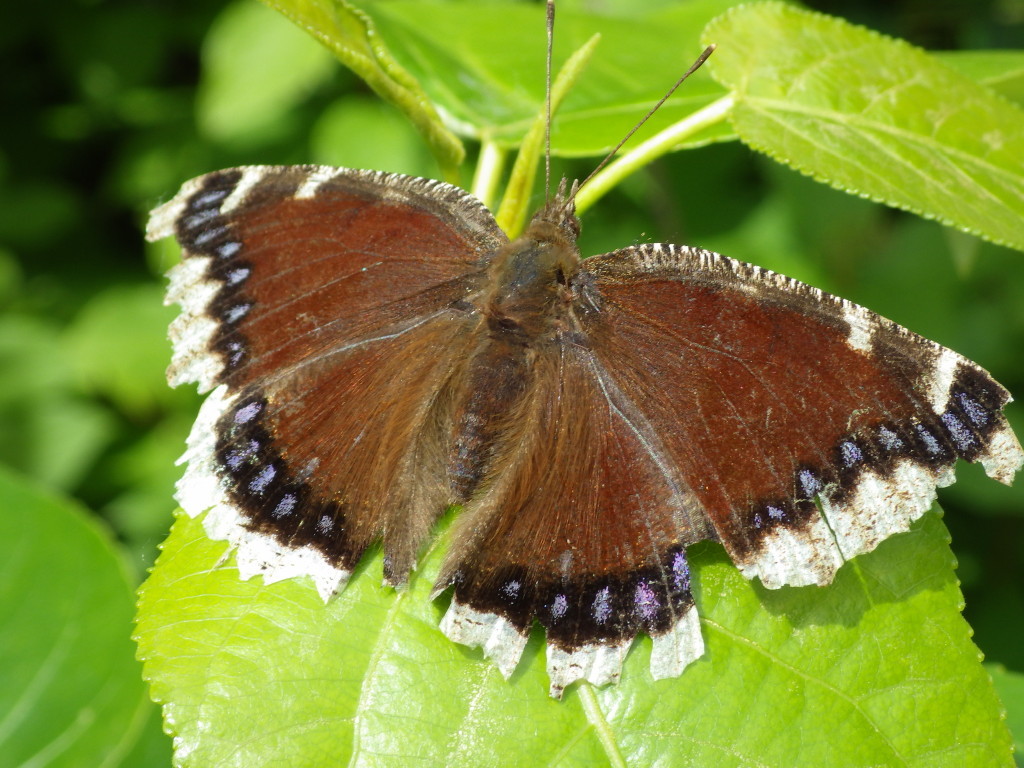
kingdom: Animalia
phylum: Arthropoda
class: Insecta
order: Lepidoptera
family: Nymphalidae
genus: Nymphalis
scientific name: Nymphalis antiopa
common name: Camberwell beauty
